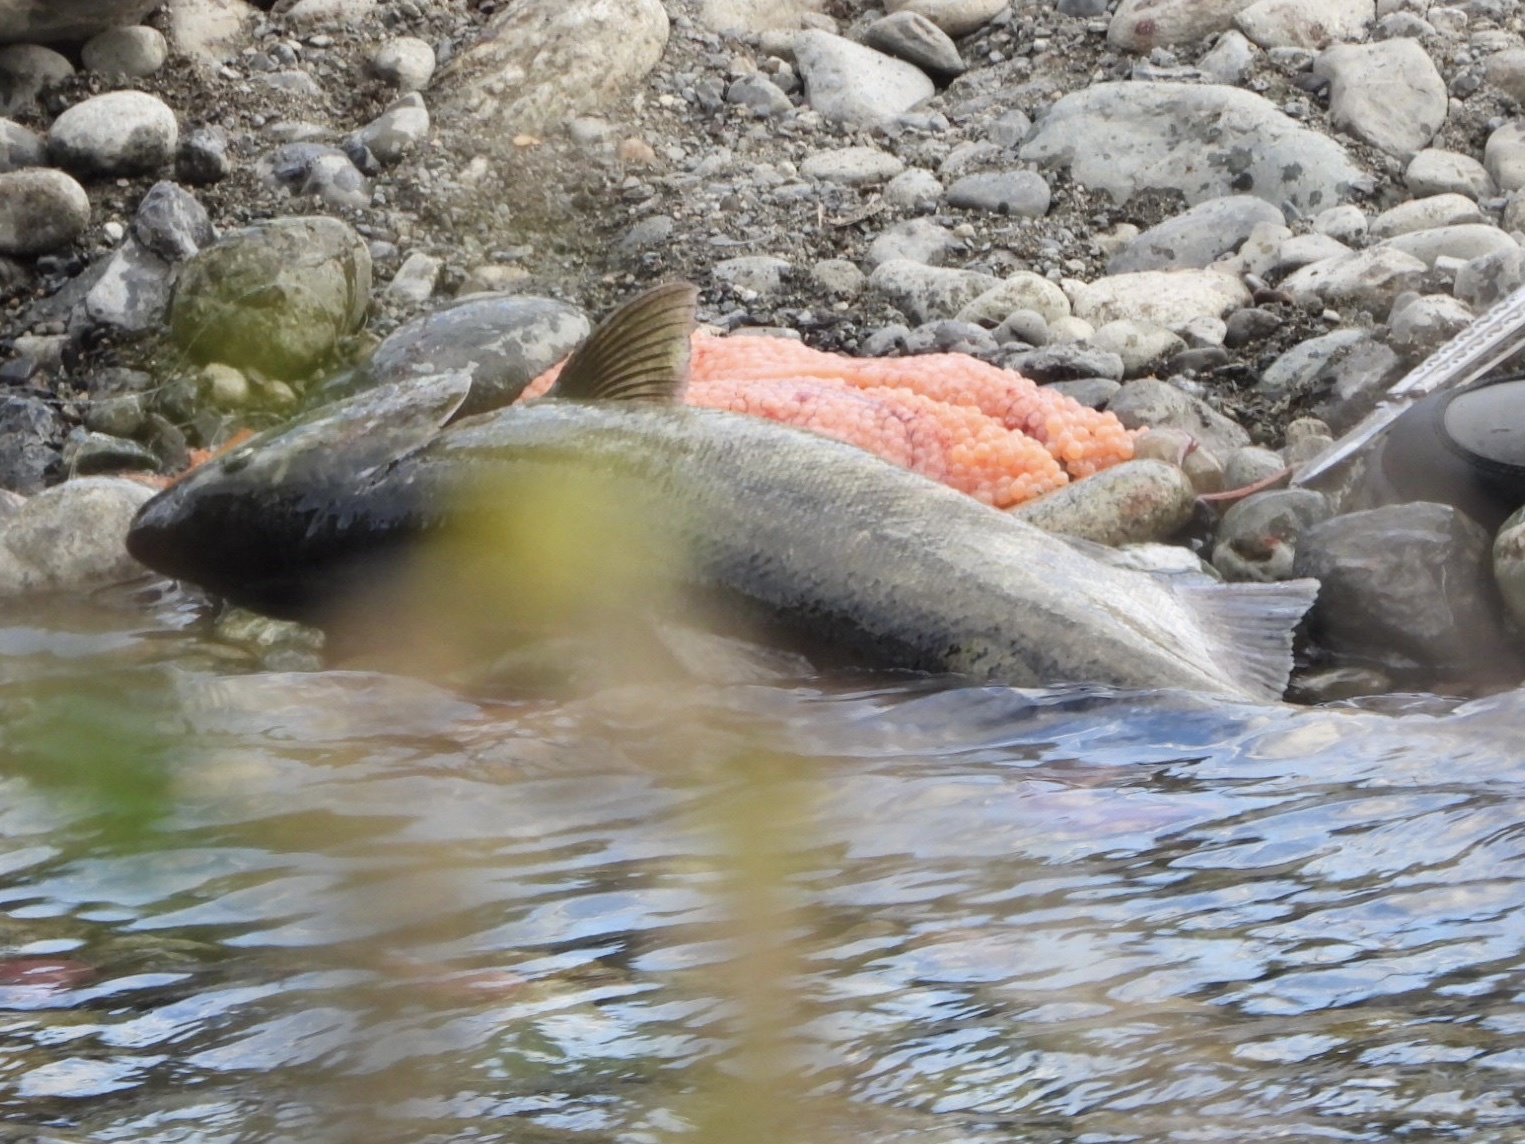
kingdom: Animalia
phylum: Chordata
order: Salmoniformes
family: Salmonidae
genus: Oncorhynchus
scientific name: Oncorhynchus keta
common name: Chum salmon
